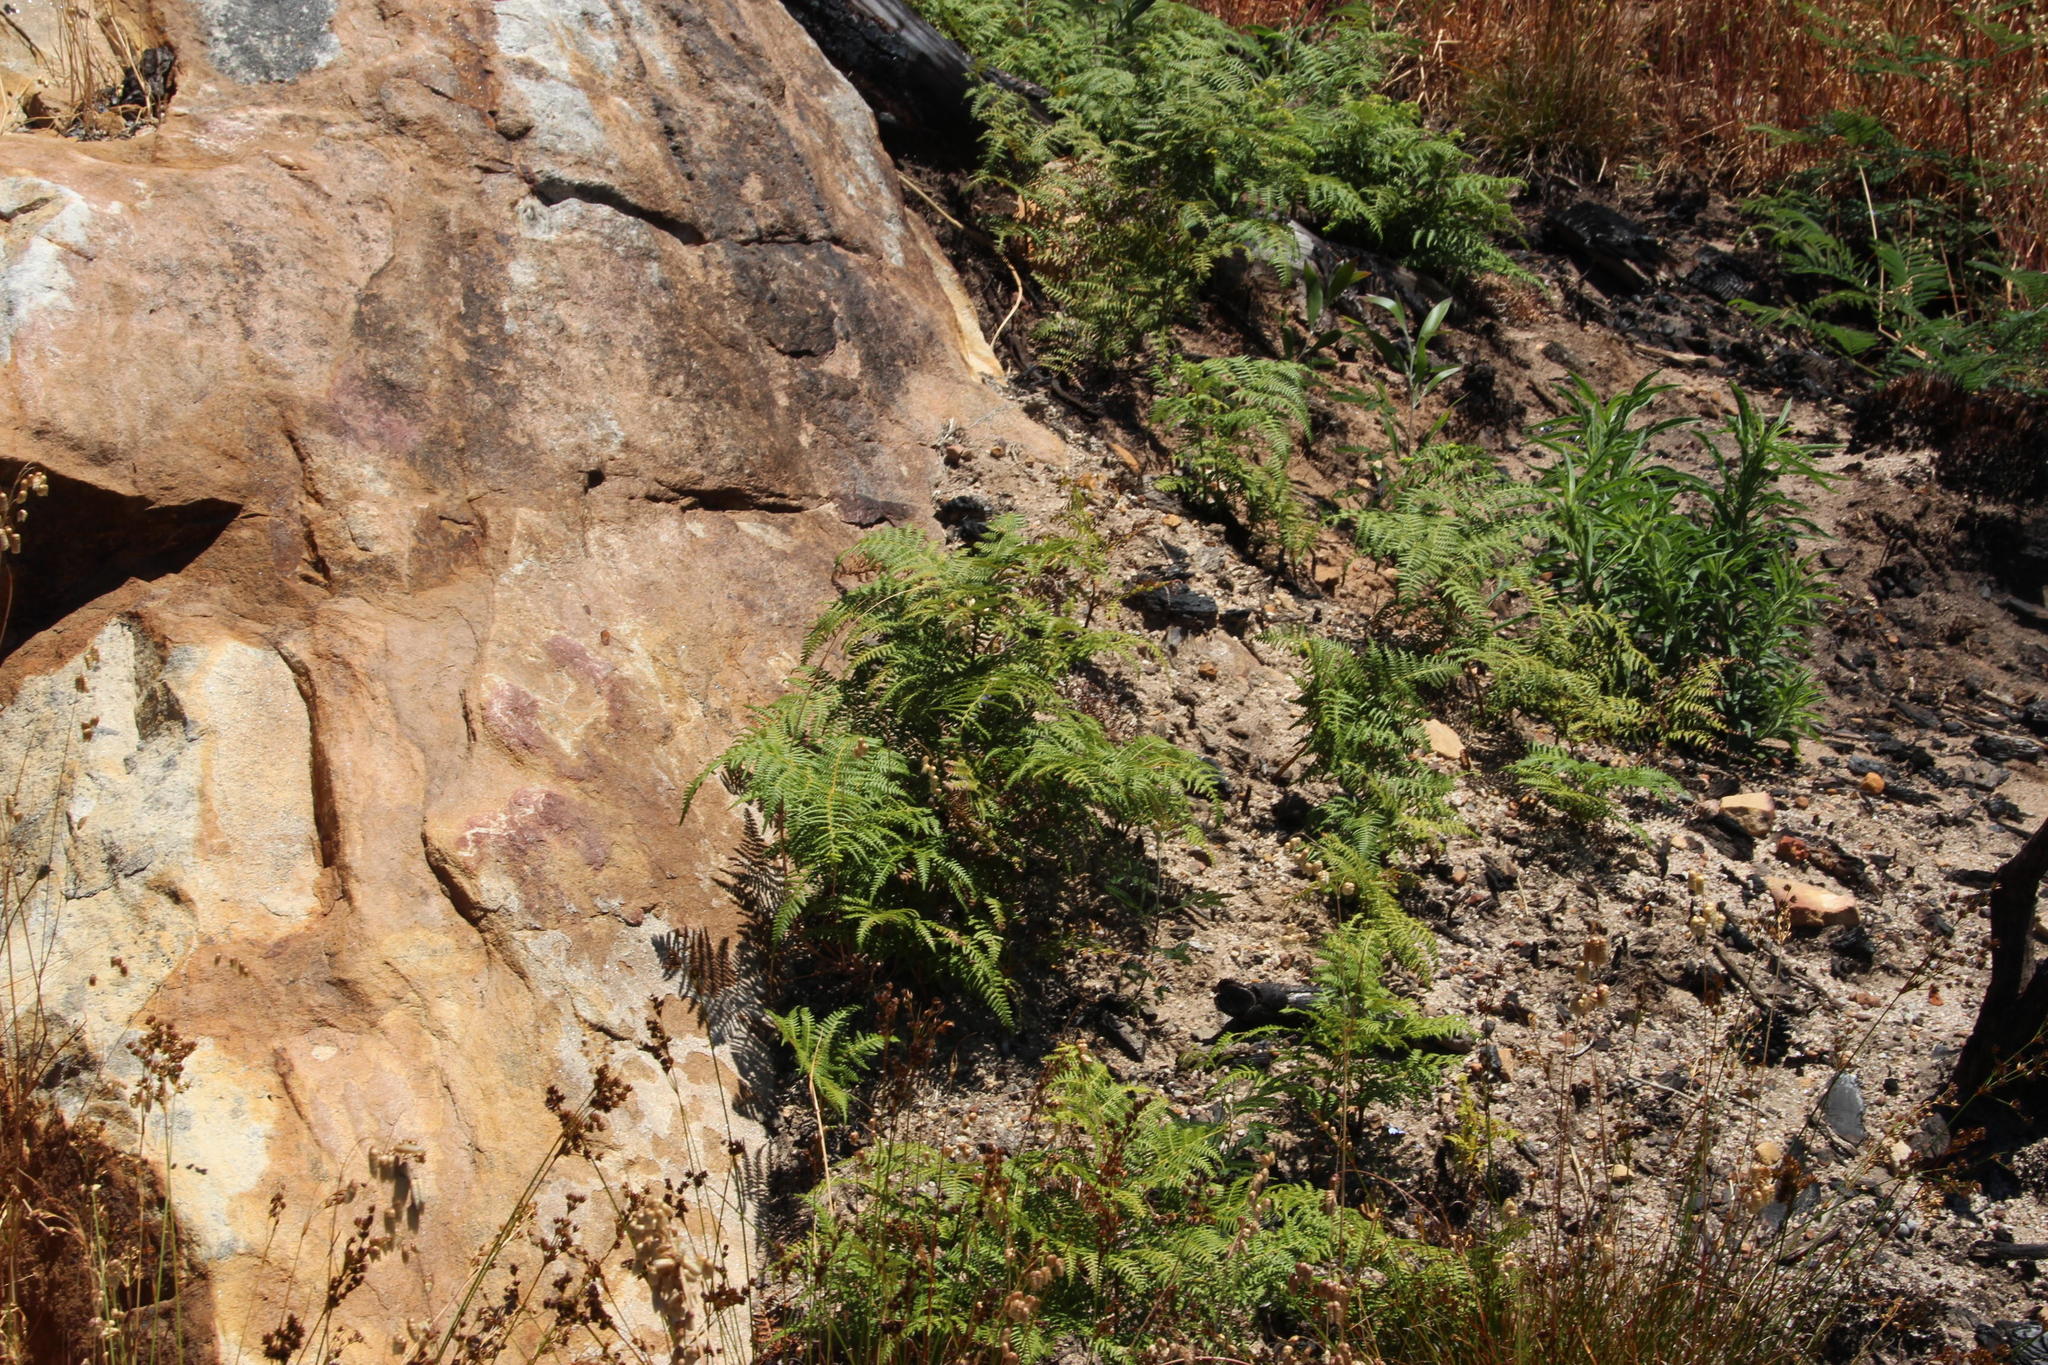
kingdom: Plantae
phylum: Tracheophyta
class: Polypodiopsida
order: Polypodiales
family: Dennstaedtiaceae
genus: Pteridium
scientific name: Pteridium aquilinum
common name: Bracken
